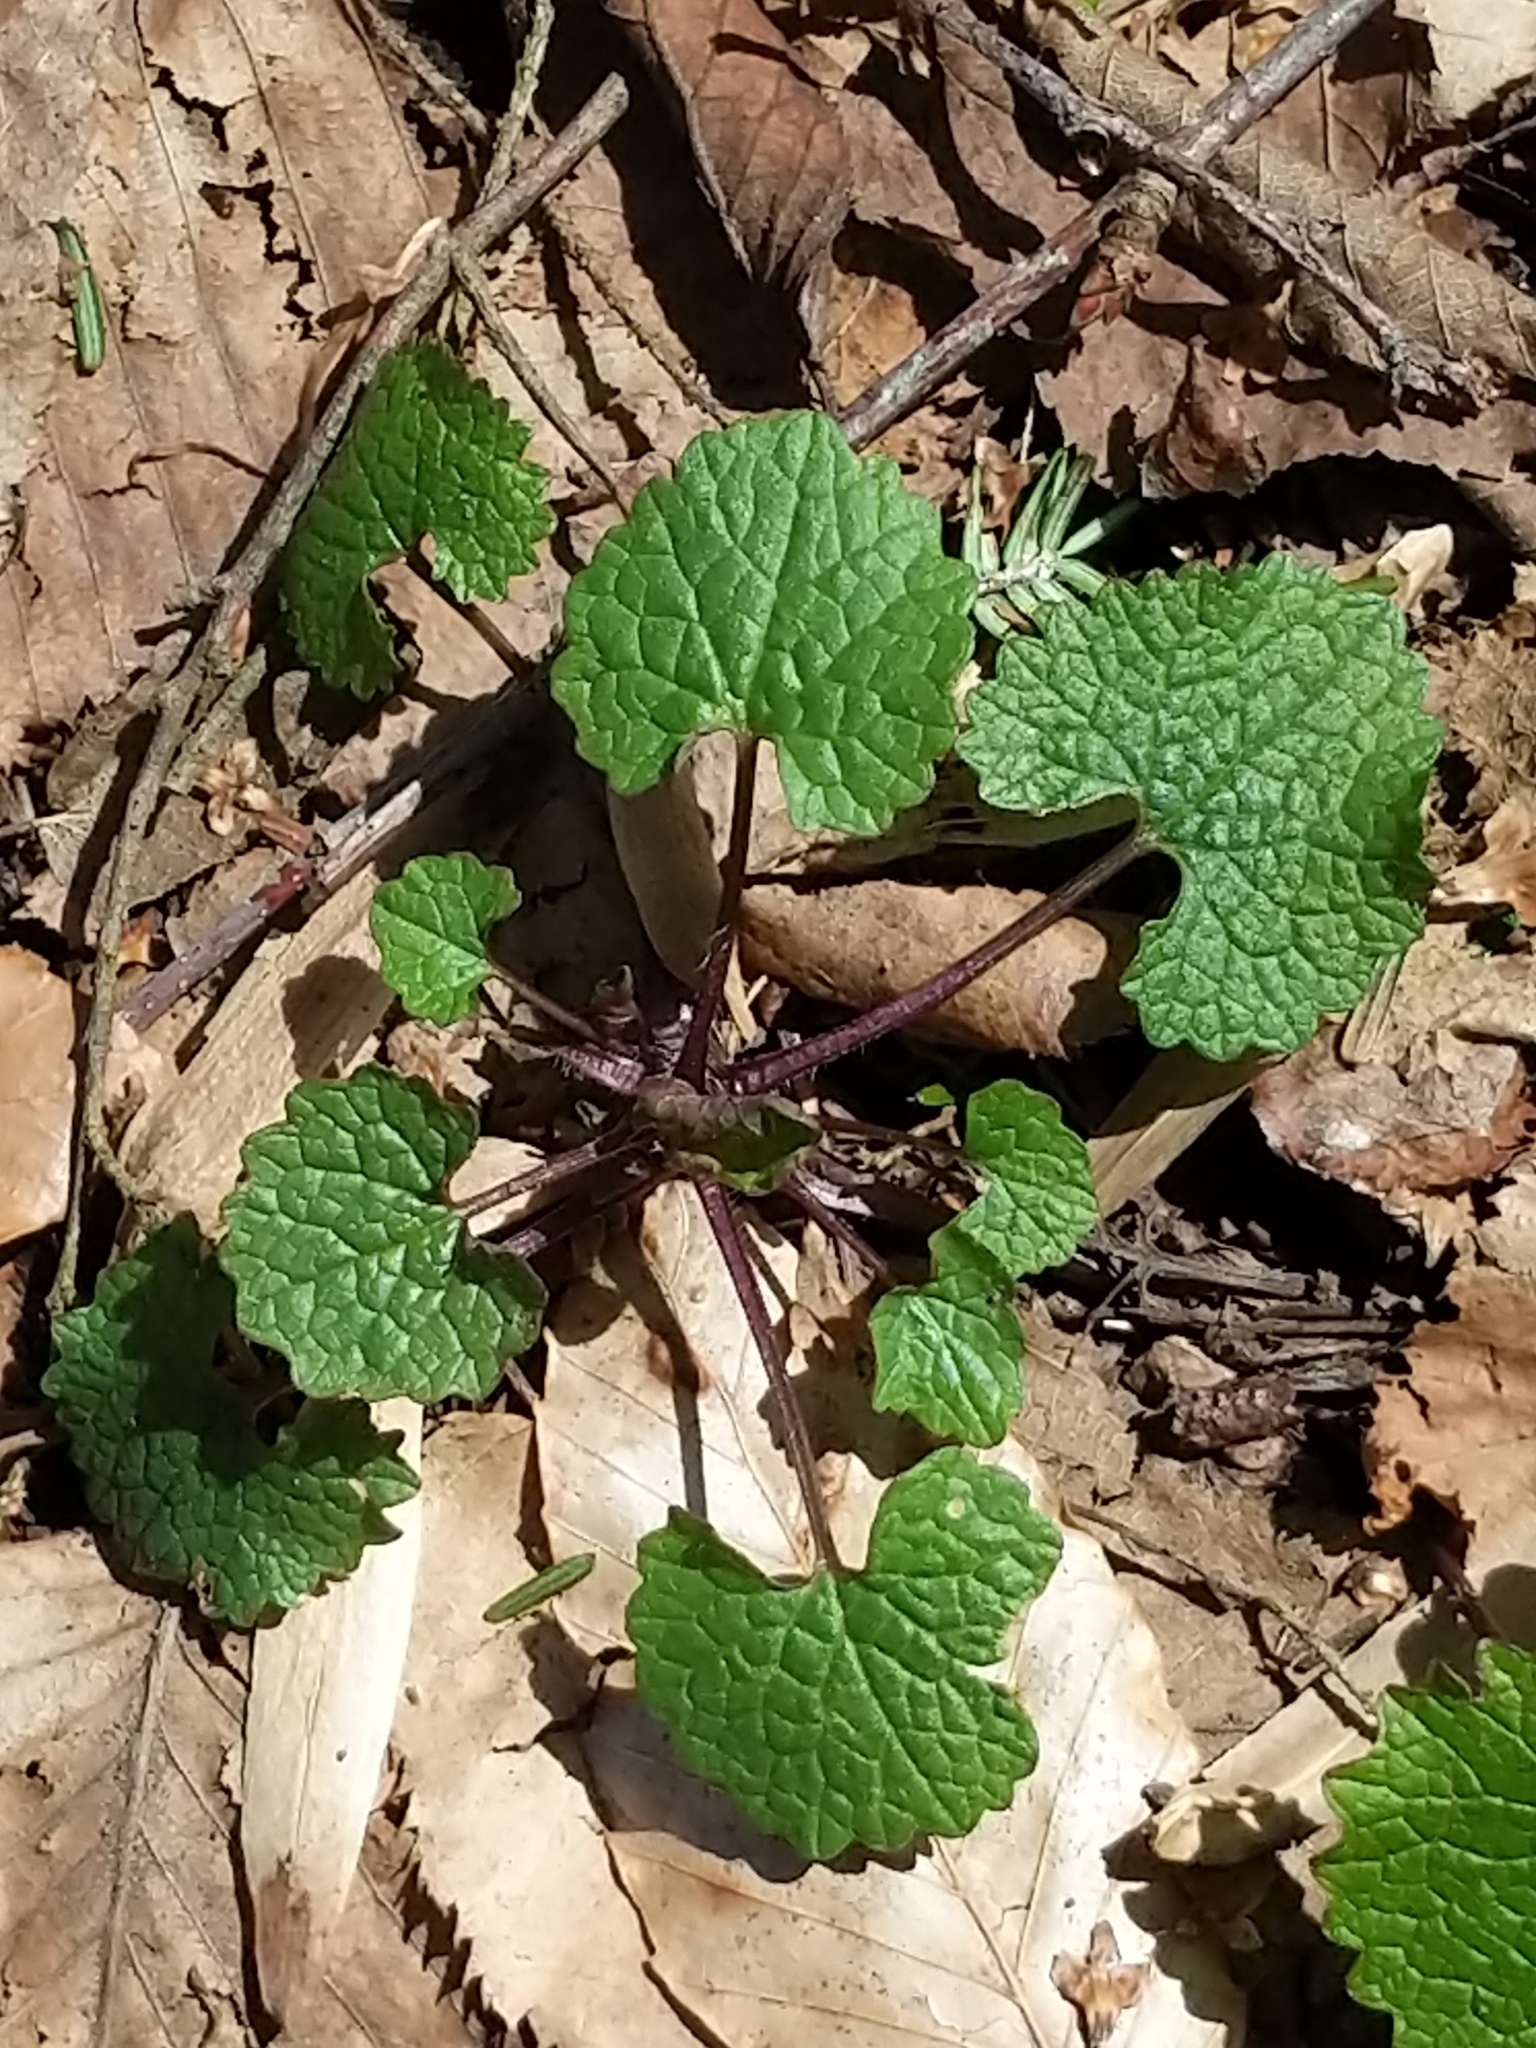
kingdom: Plantae
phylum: Tracheophyta
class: Magnoliopsida
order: Brassicales
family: Brassicaceae
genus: Alliaria
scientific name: Alliaria petiolata
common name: Garlic mustard
